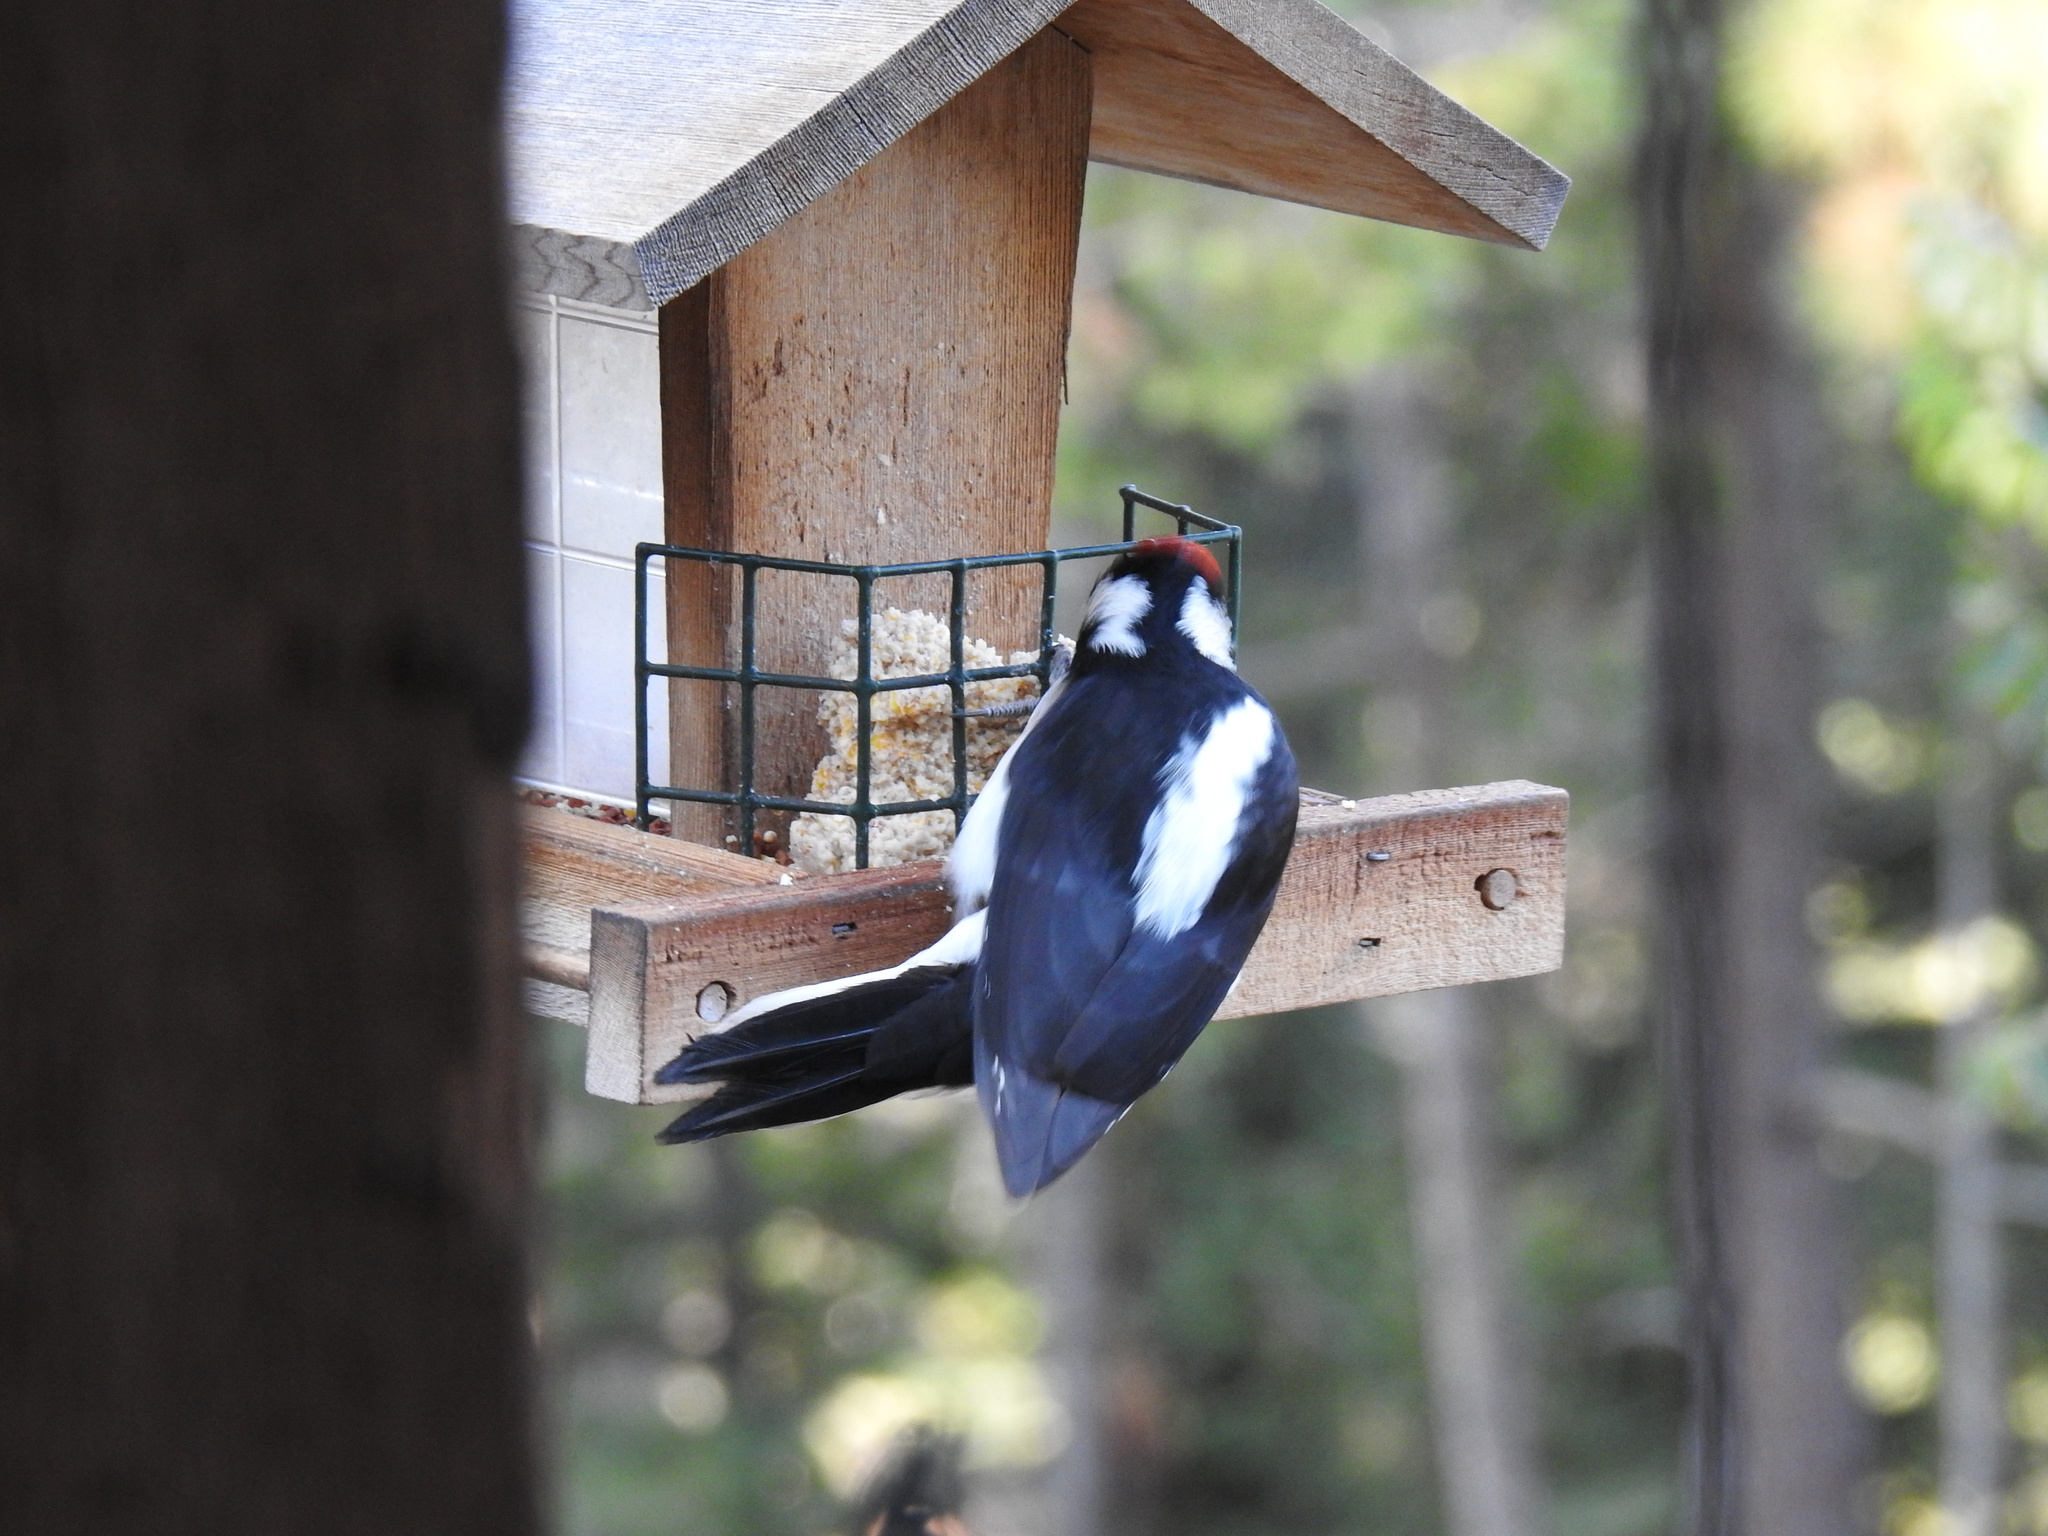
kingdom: Animalia
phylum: Chordata
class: Aves
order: Piciformes
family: Picidae
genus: Leuconotopicus
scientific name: Leuconotopicus villosus
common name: Hairy woodpecker
